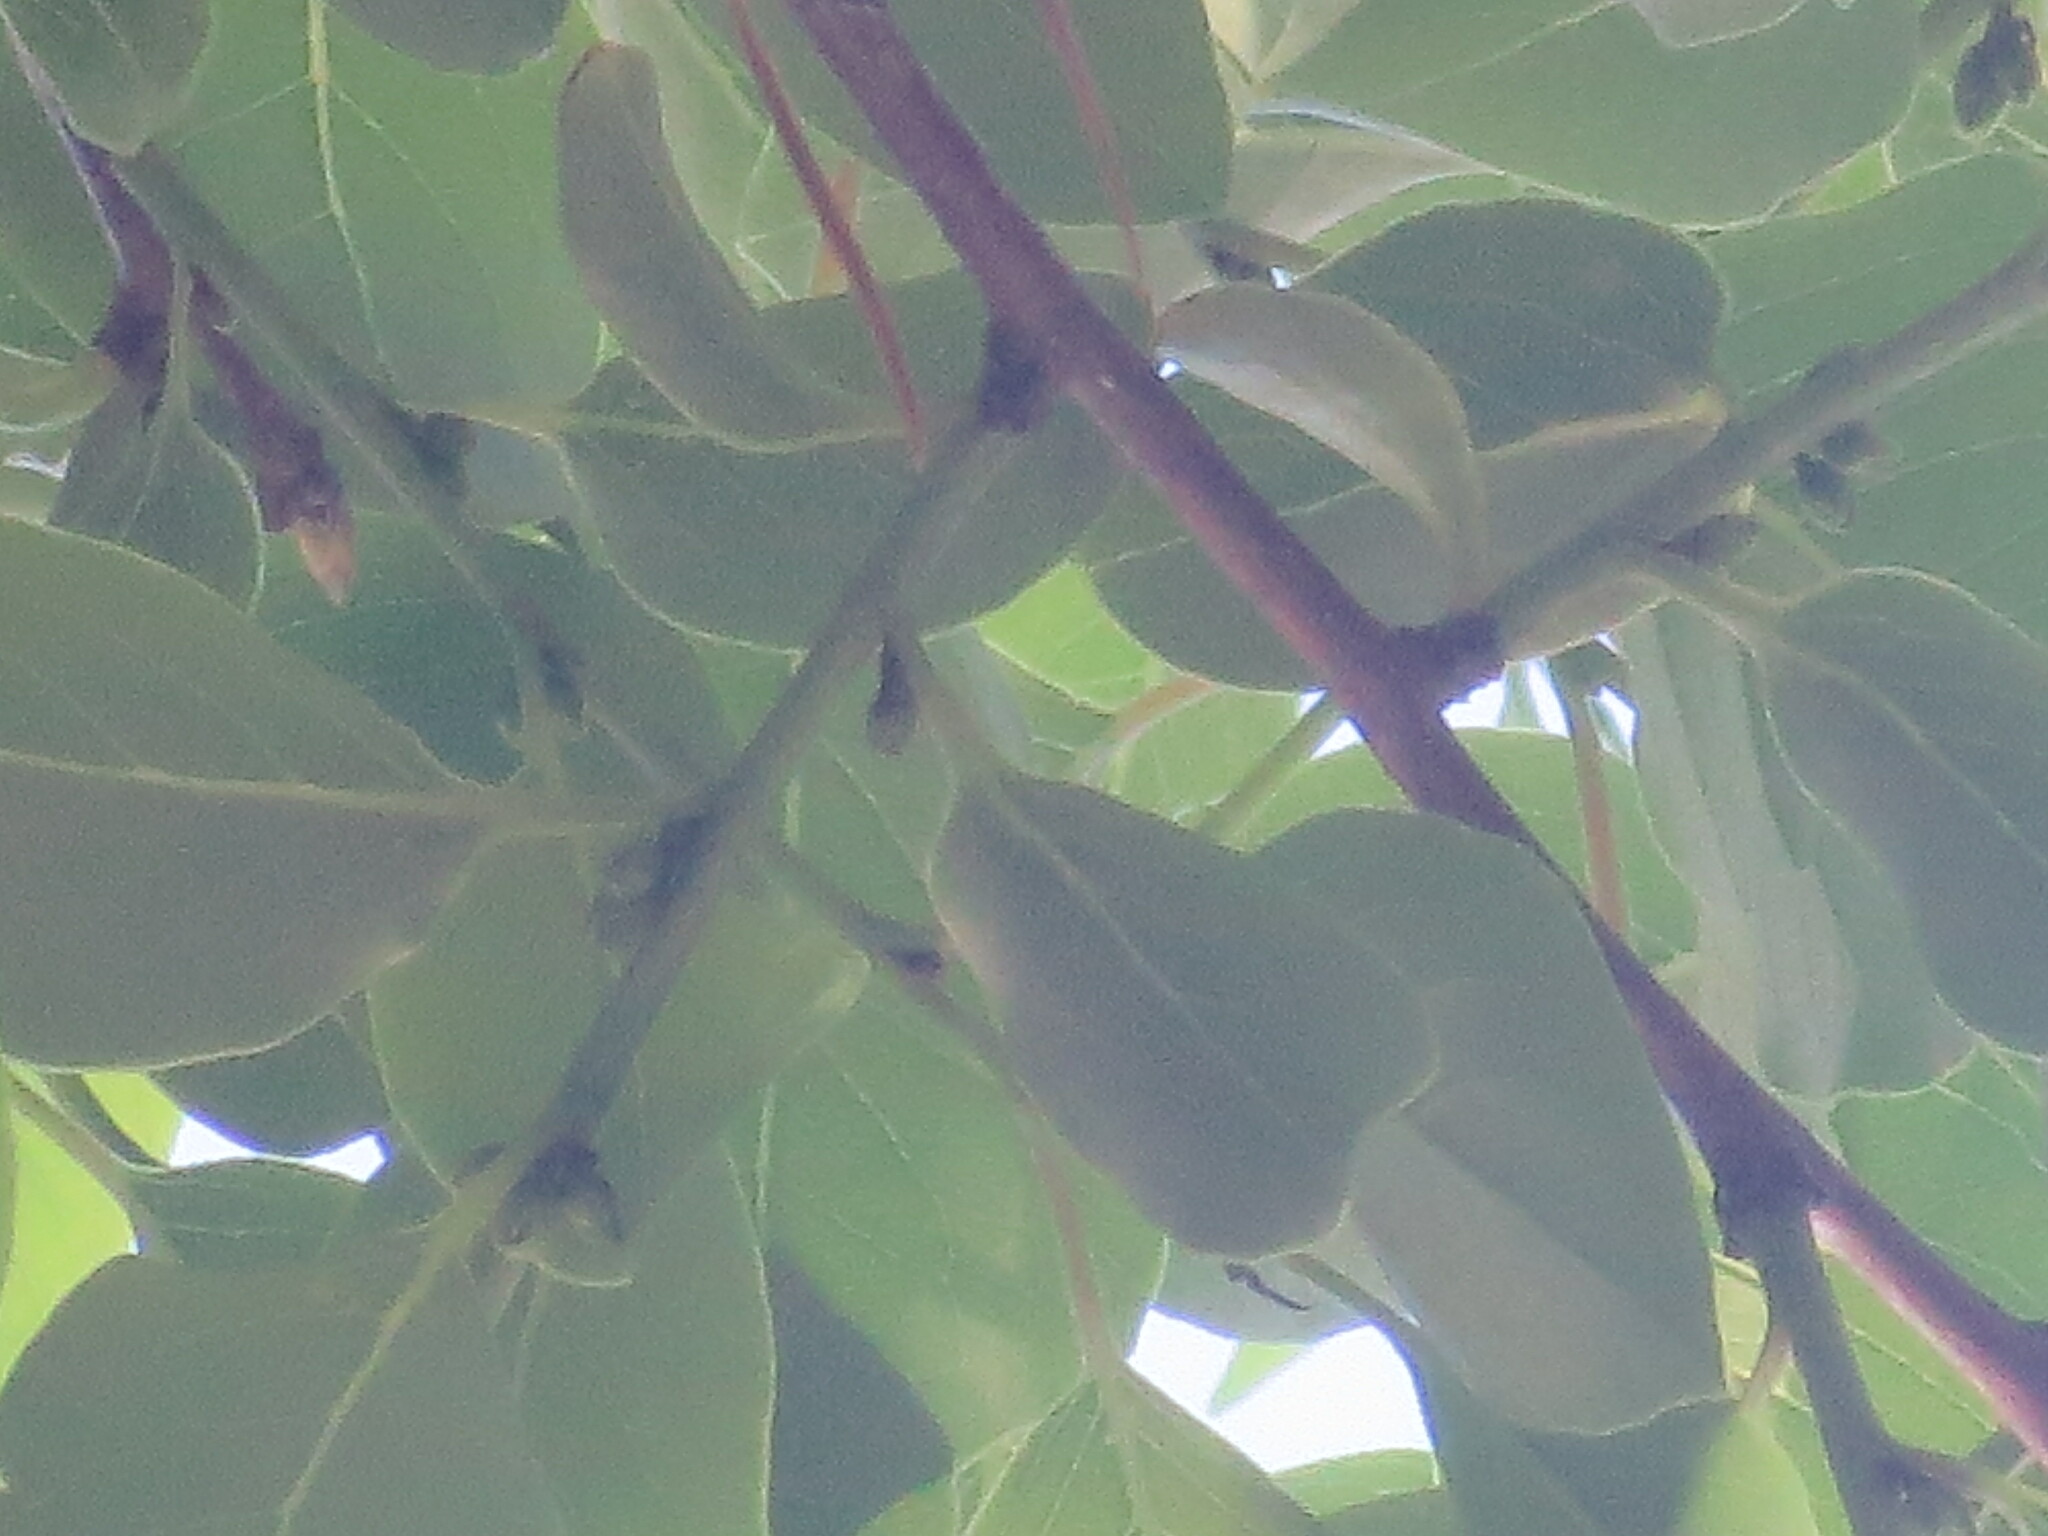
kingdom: Plantae
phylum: Tracheophyta
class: Magnoliopsida
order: Ericales
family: Ebenaceae
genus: Diospyros
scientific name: Diospyros virginiana
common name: Persimmon
